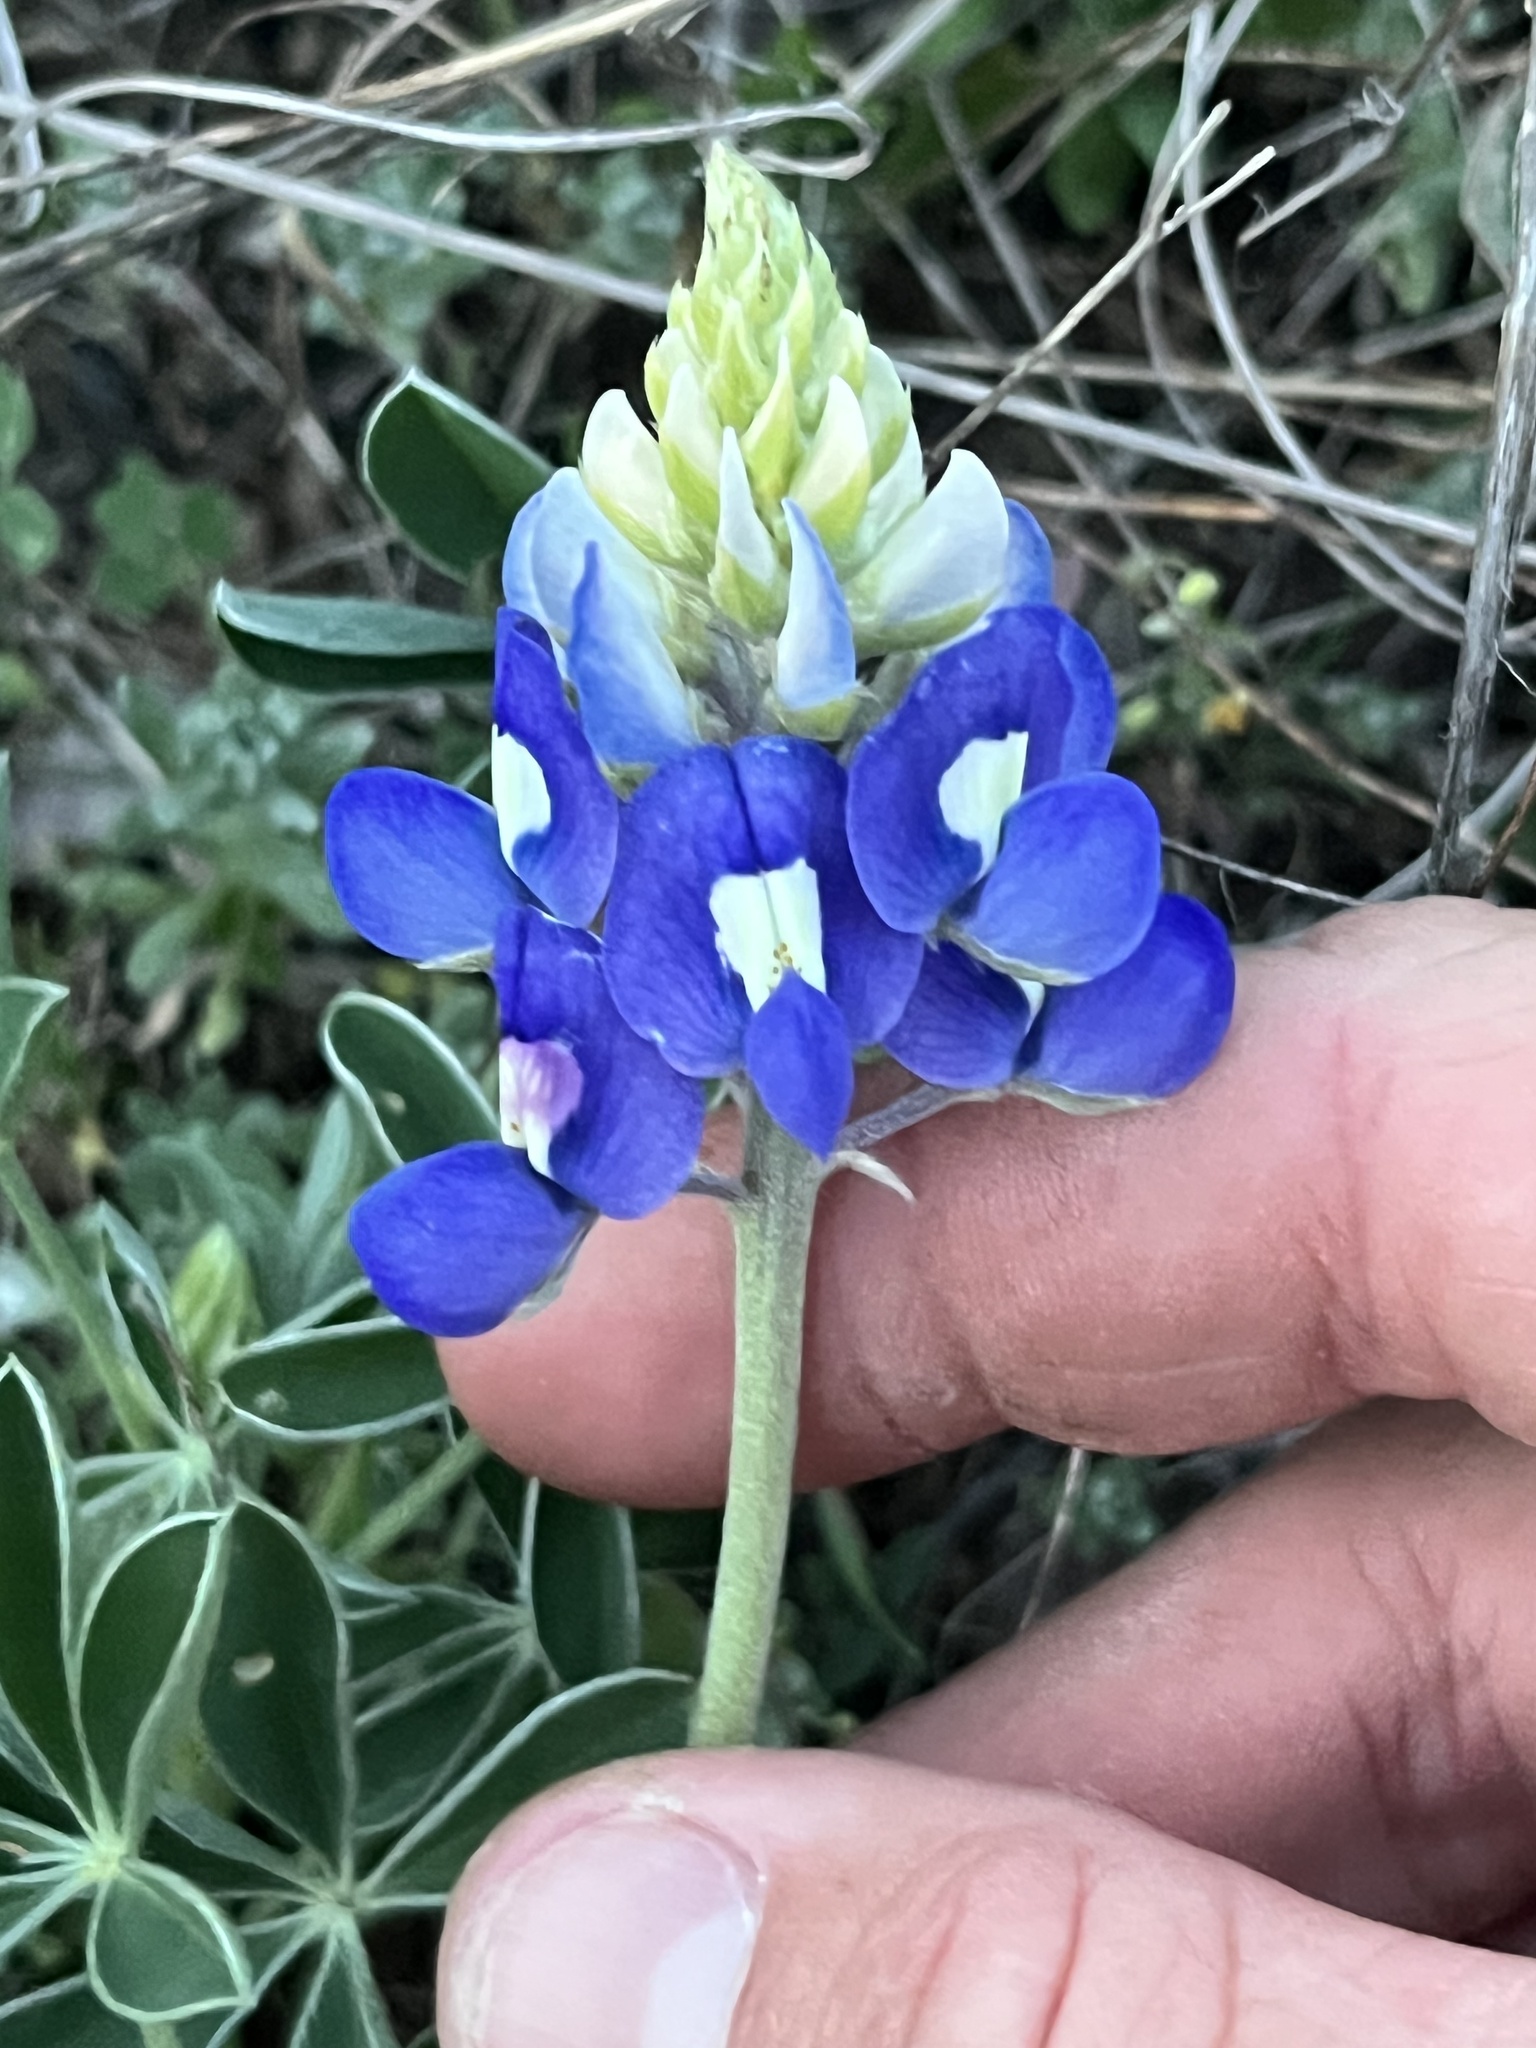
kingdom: Plantae
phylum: Tracheophyta
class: Magnoliopsida
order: Fabales
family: Fabaceae
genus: Lupinus
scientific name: Lupinus texensis
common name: Texas bluebonnet
